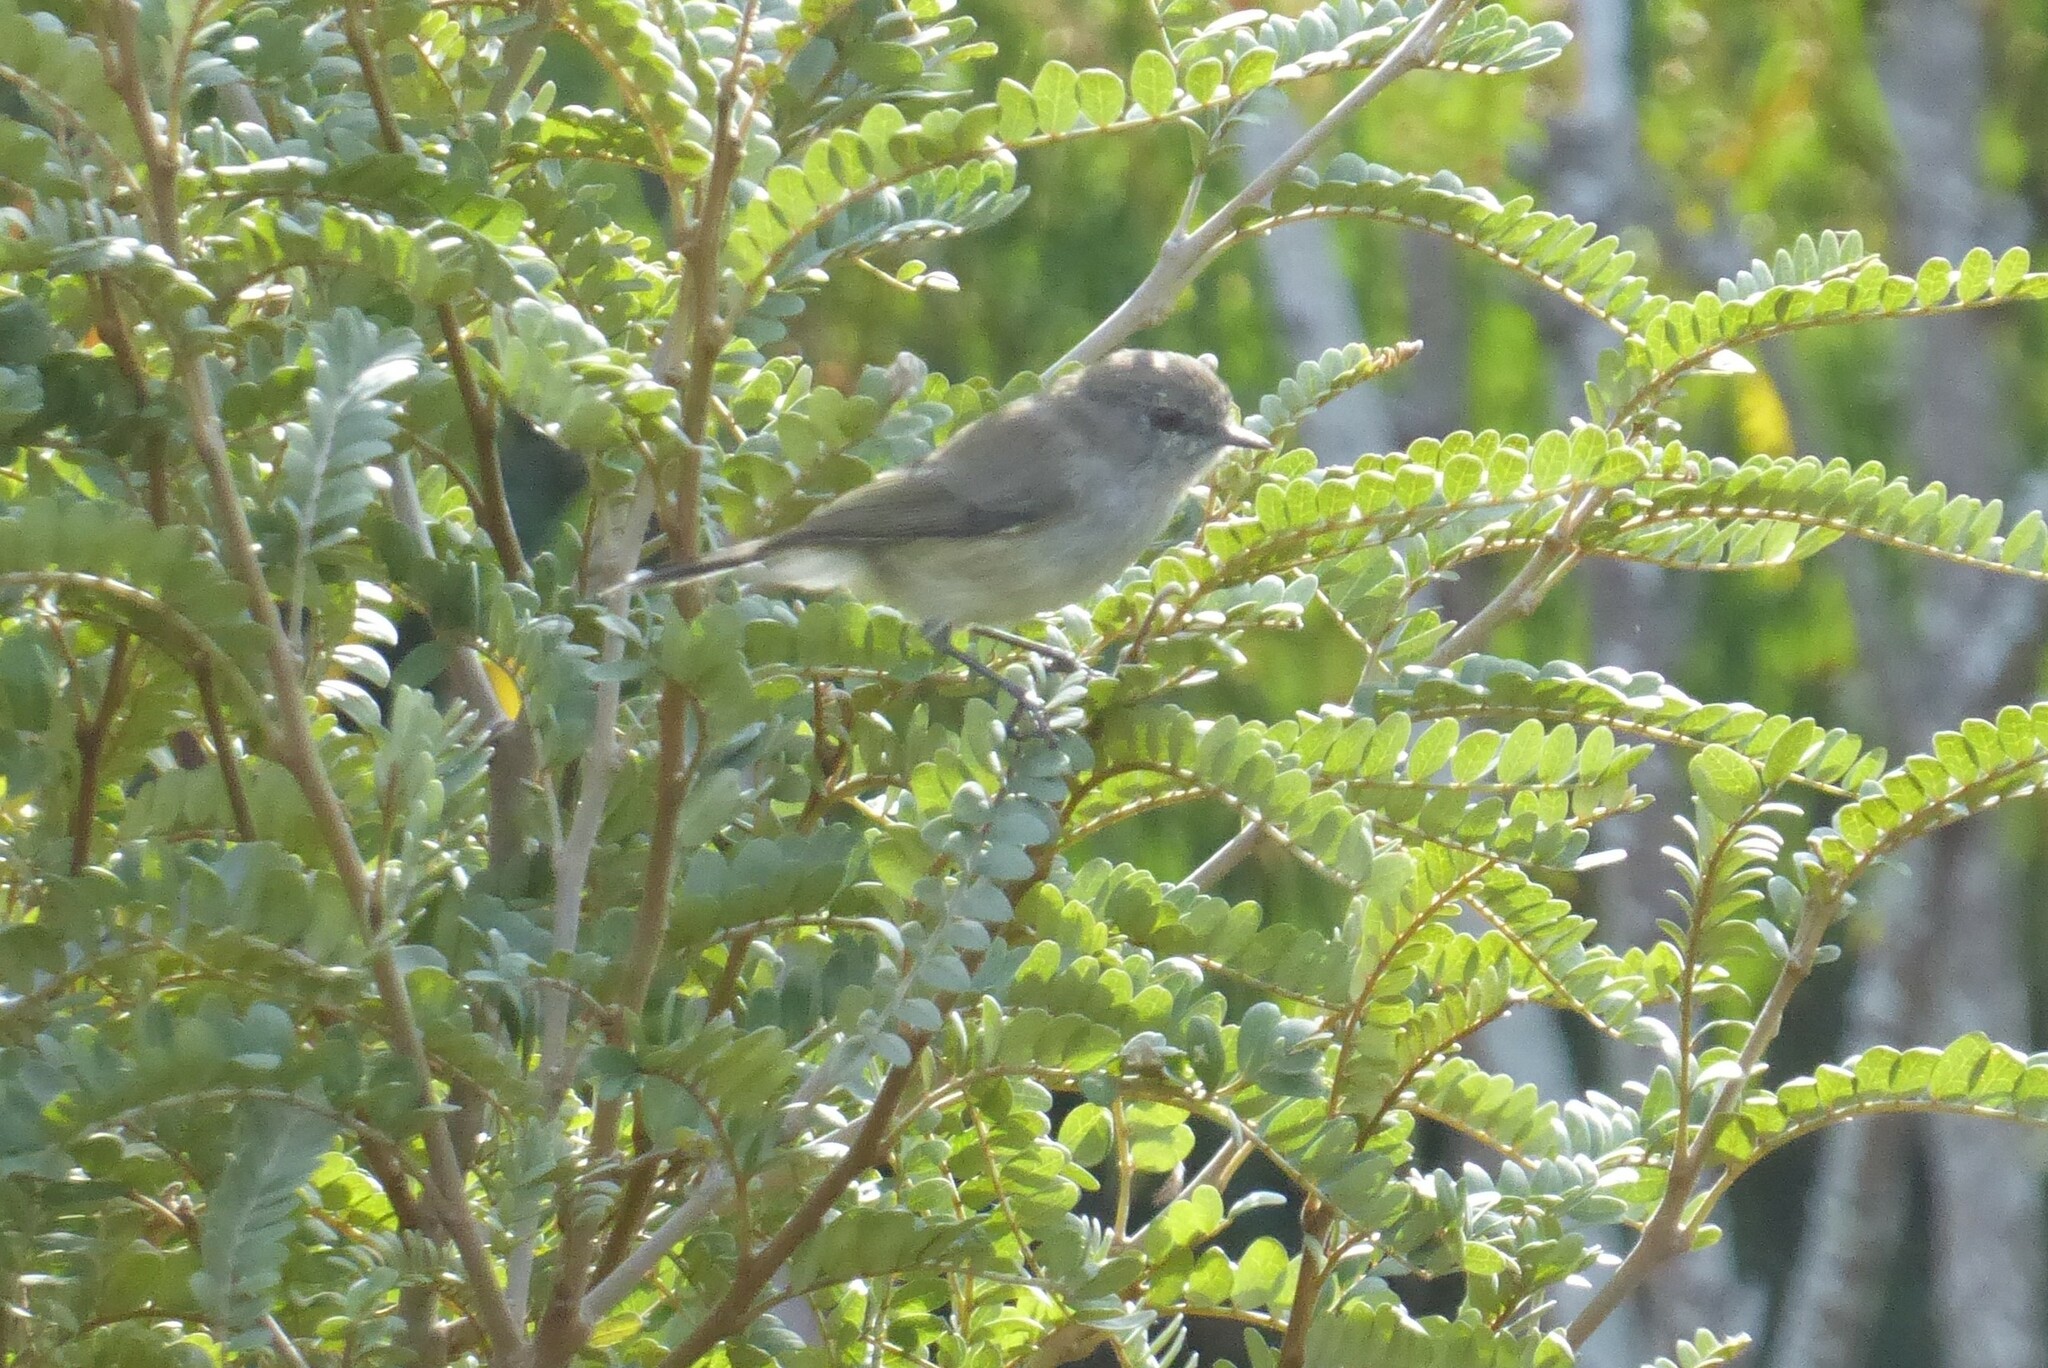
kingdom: Animalia
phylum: Chordata
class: Aves
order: Passeriformes
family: Acanthizidae
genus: Gerygone
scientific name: Gerygone igata
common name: Grey gerygone
